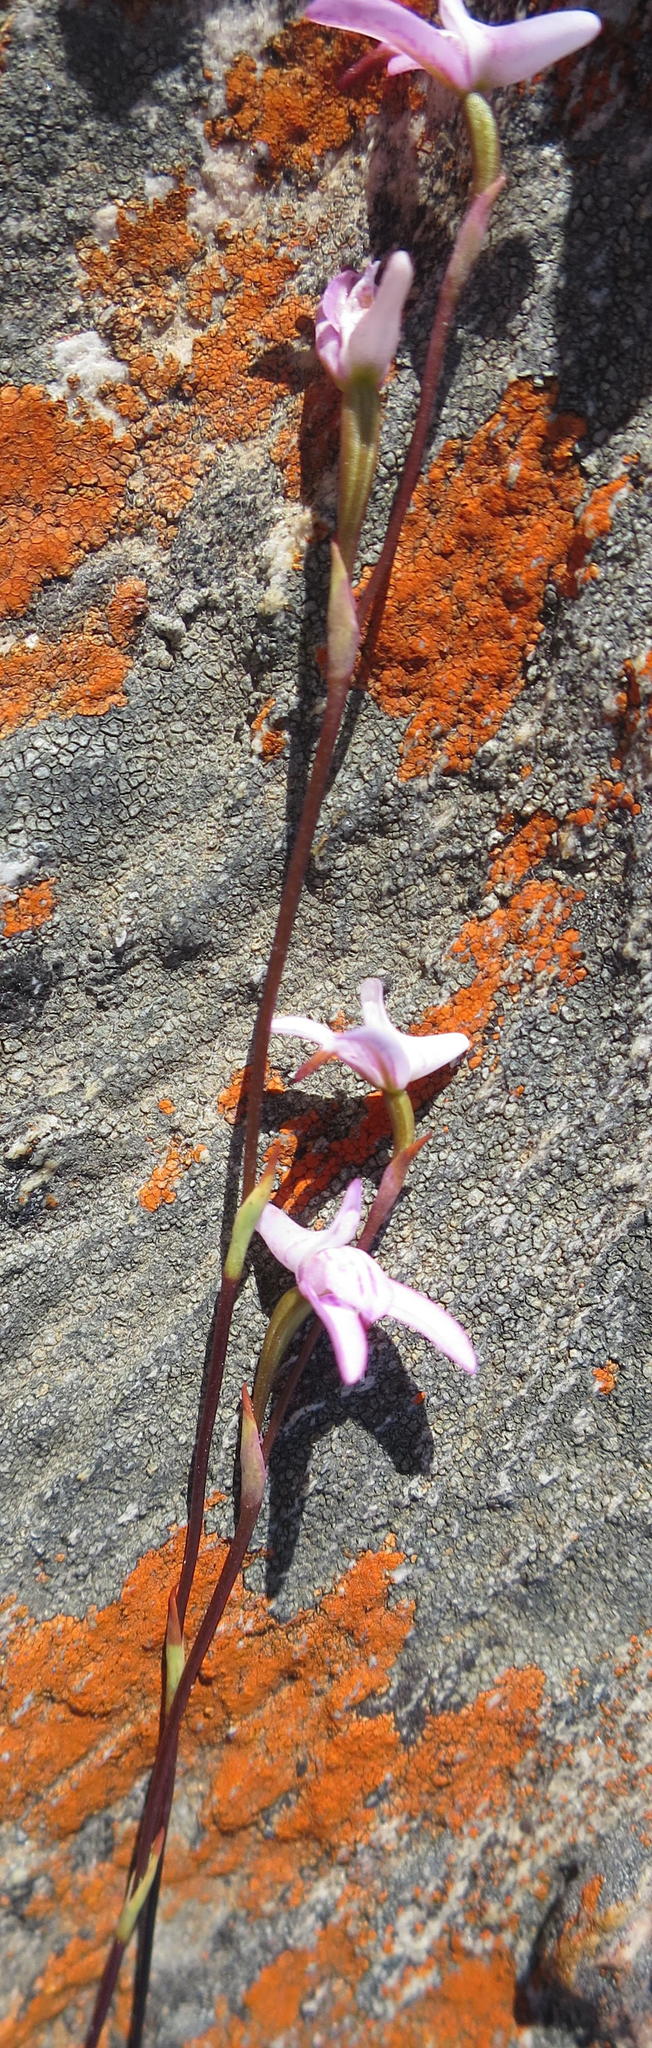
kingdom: Plantae
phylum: Tracheophyta
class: Liliopsida
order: Asparagales
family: Orchidaceae
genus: Disa
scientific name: Disa inflexa
